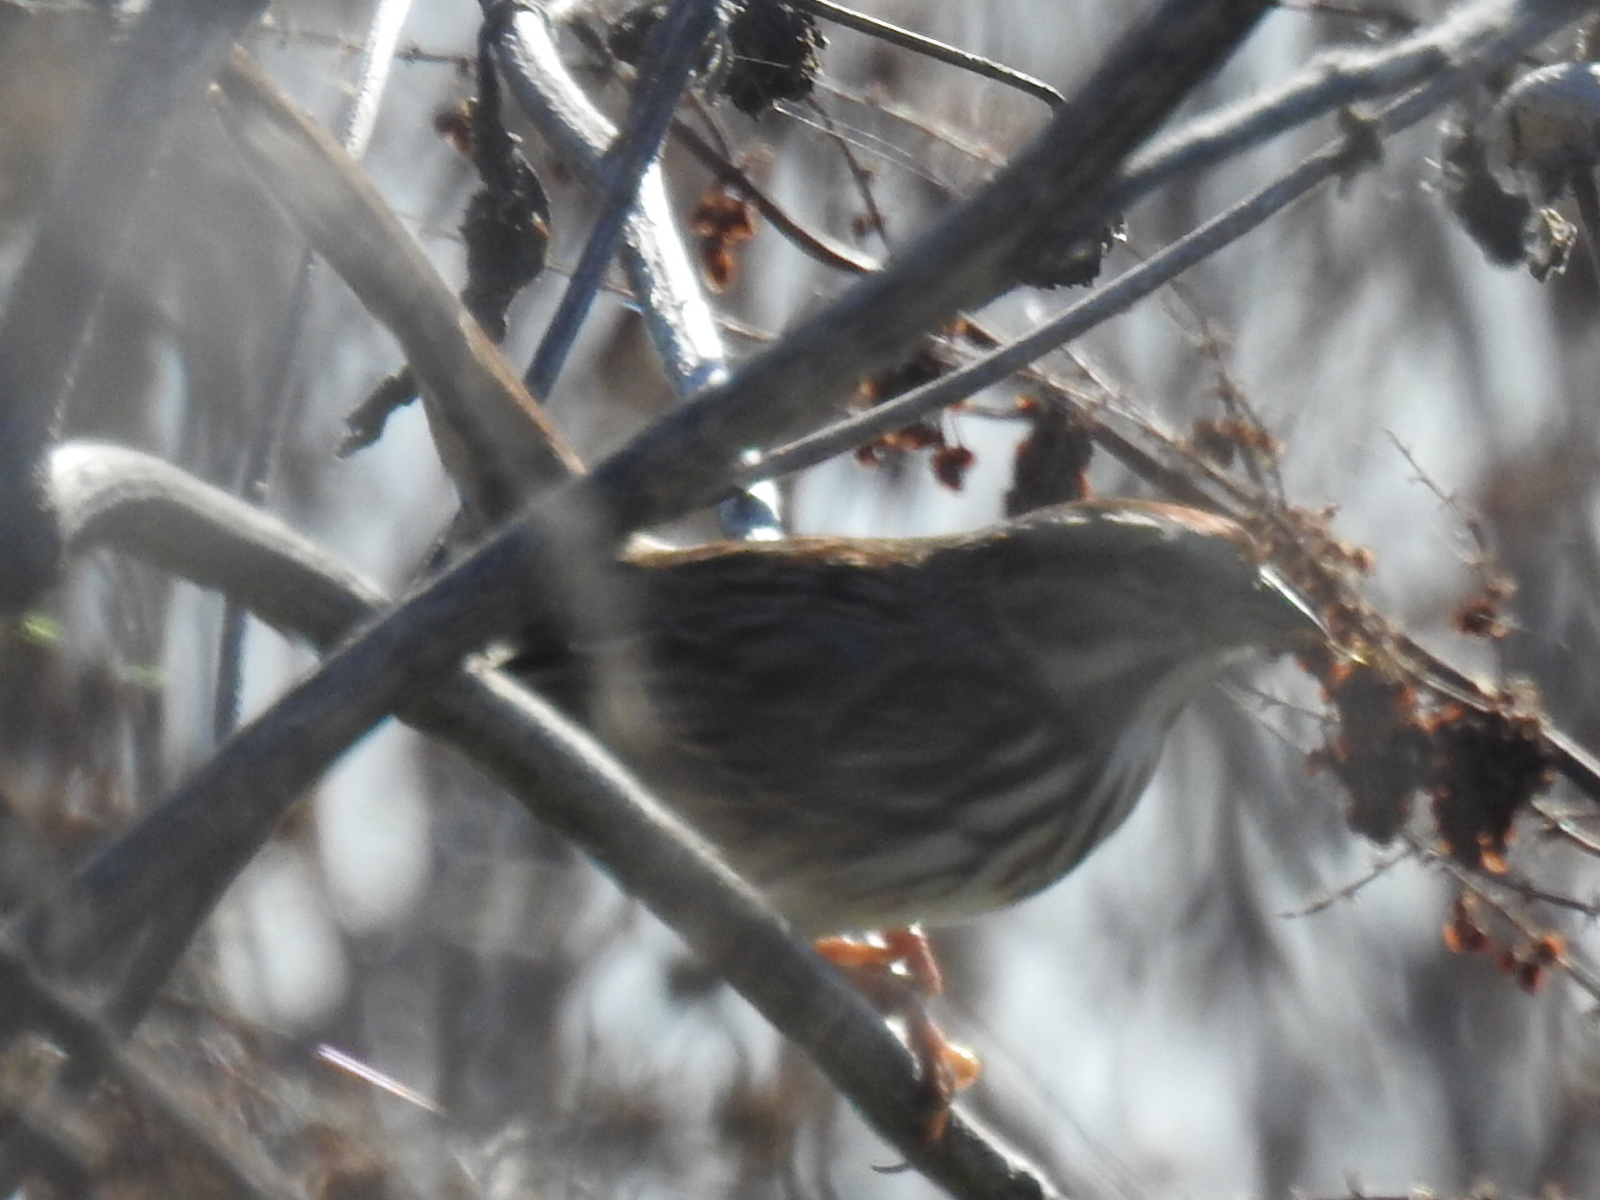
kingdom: Animalia
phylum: Chordata
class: Aves
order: Passeriformes
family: Passerellidae
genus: Melospiza
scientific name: Melospiza melodia
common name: Song sparrow
